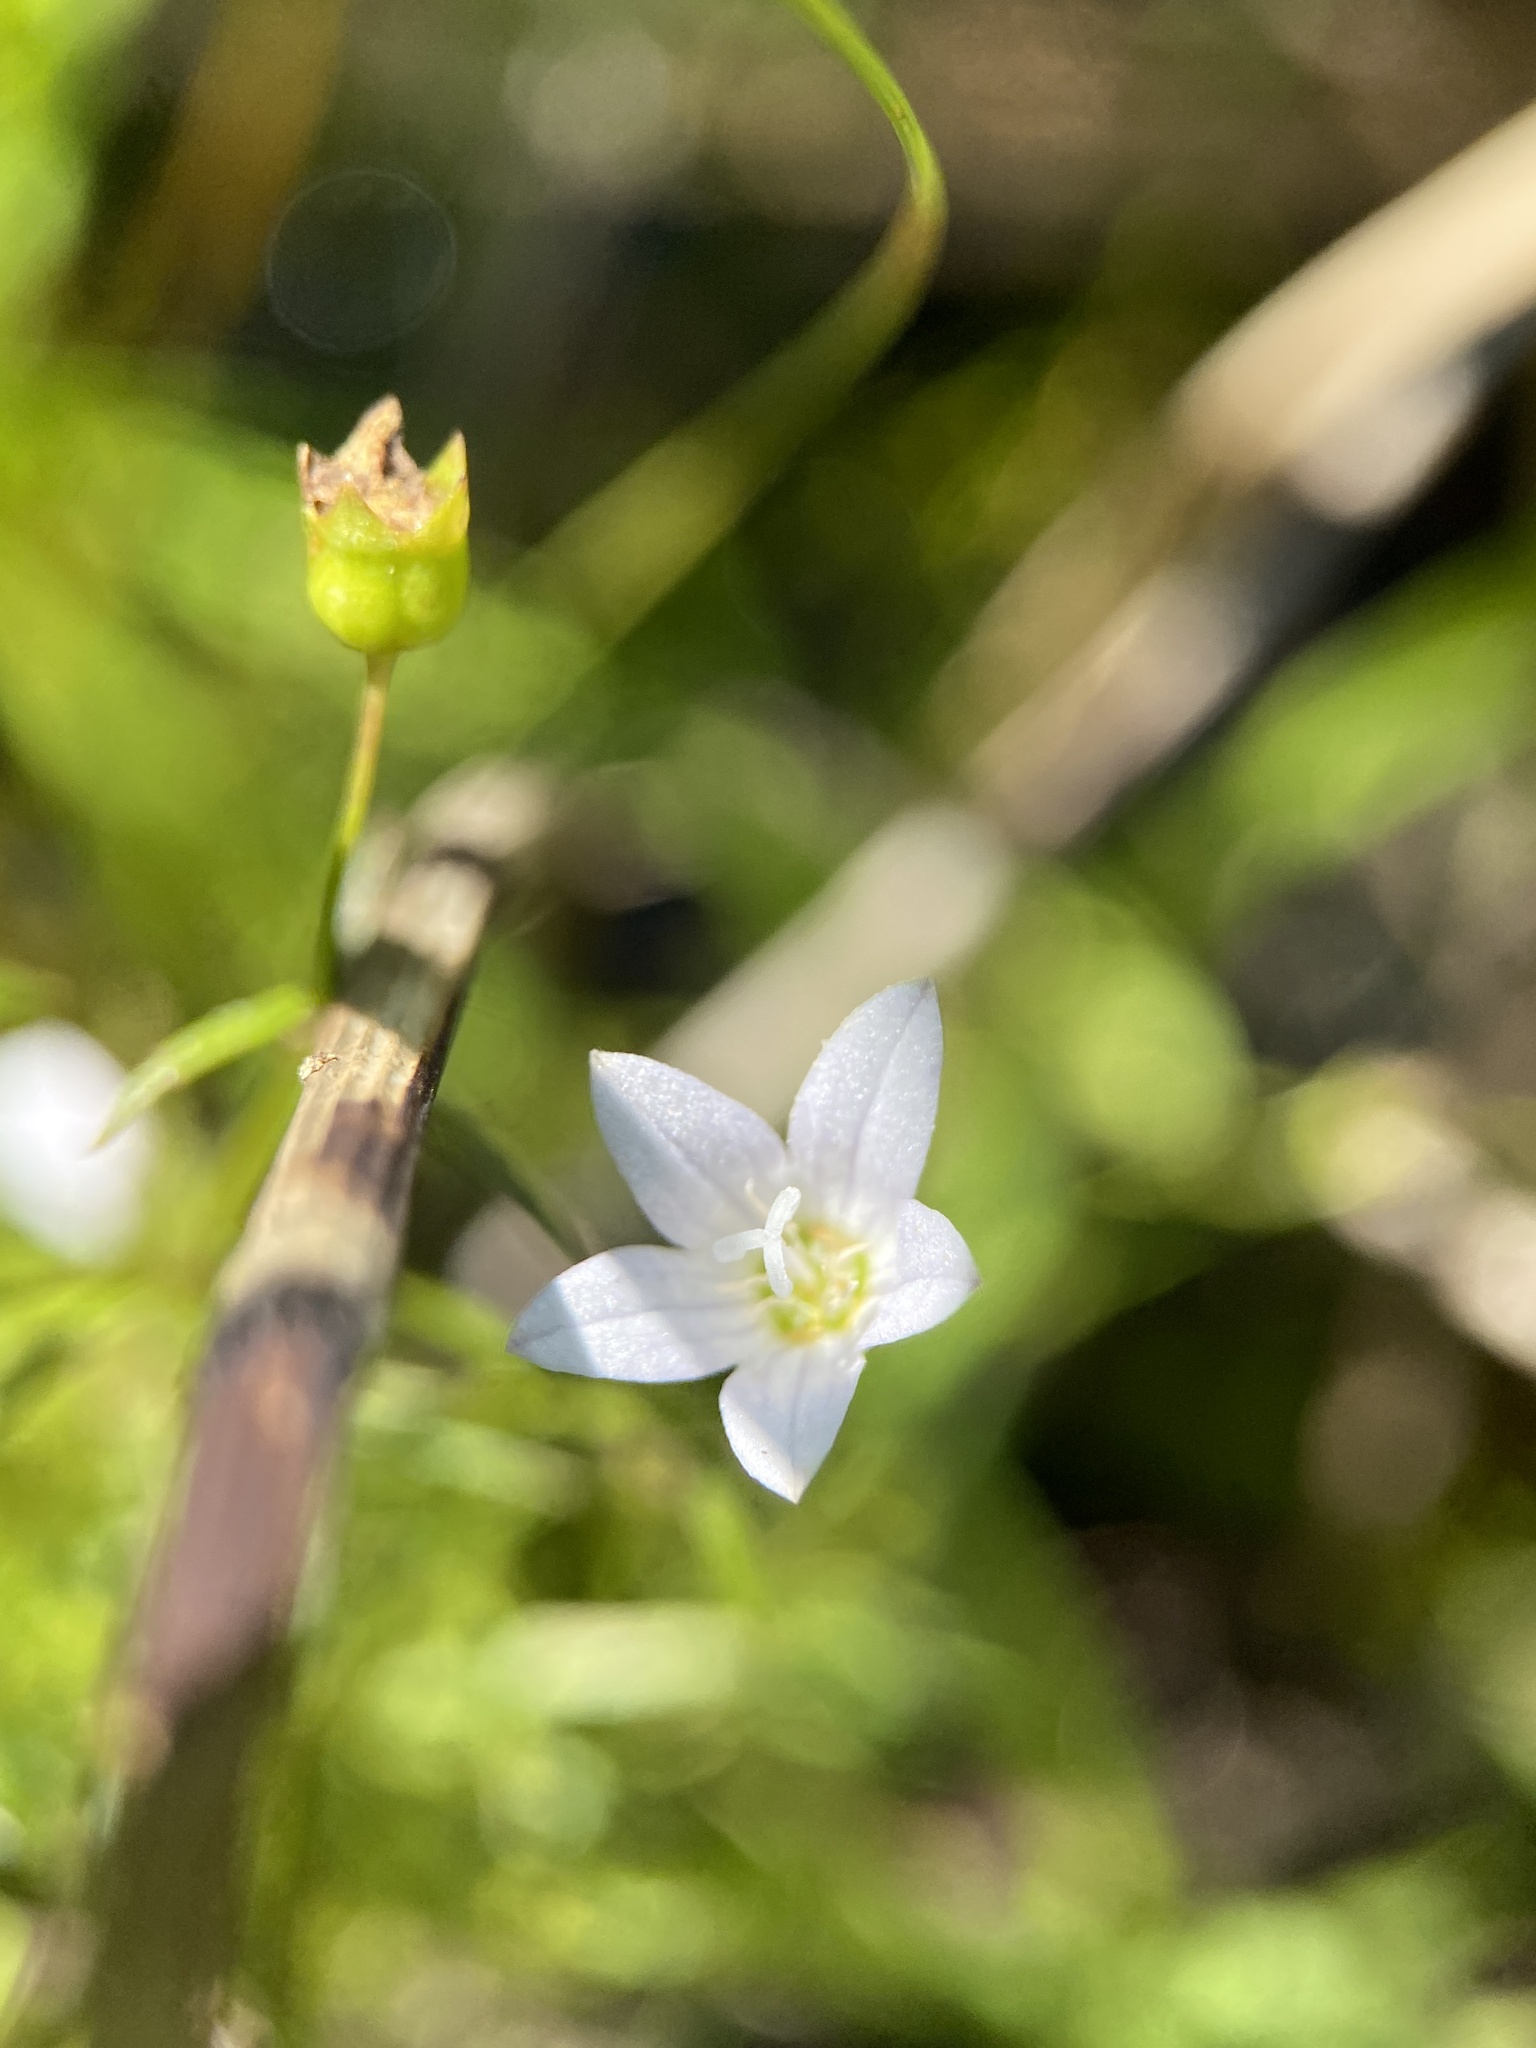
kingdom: Plantae
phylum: Tracheophyta
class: Magnoliopsida
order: Asterales
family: Campanulaceae
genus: Palustricodon
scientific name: Palustricodon aparinoides
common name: Bedstraw bellflower
